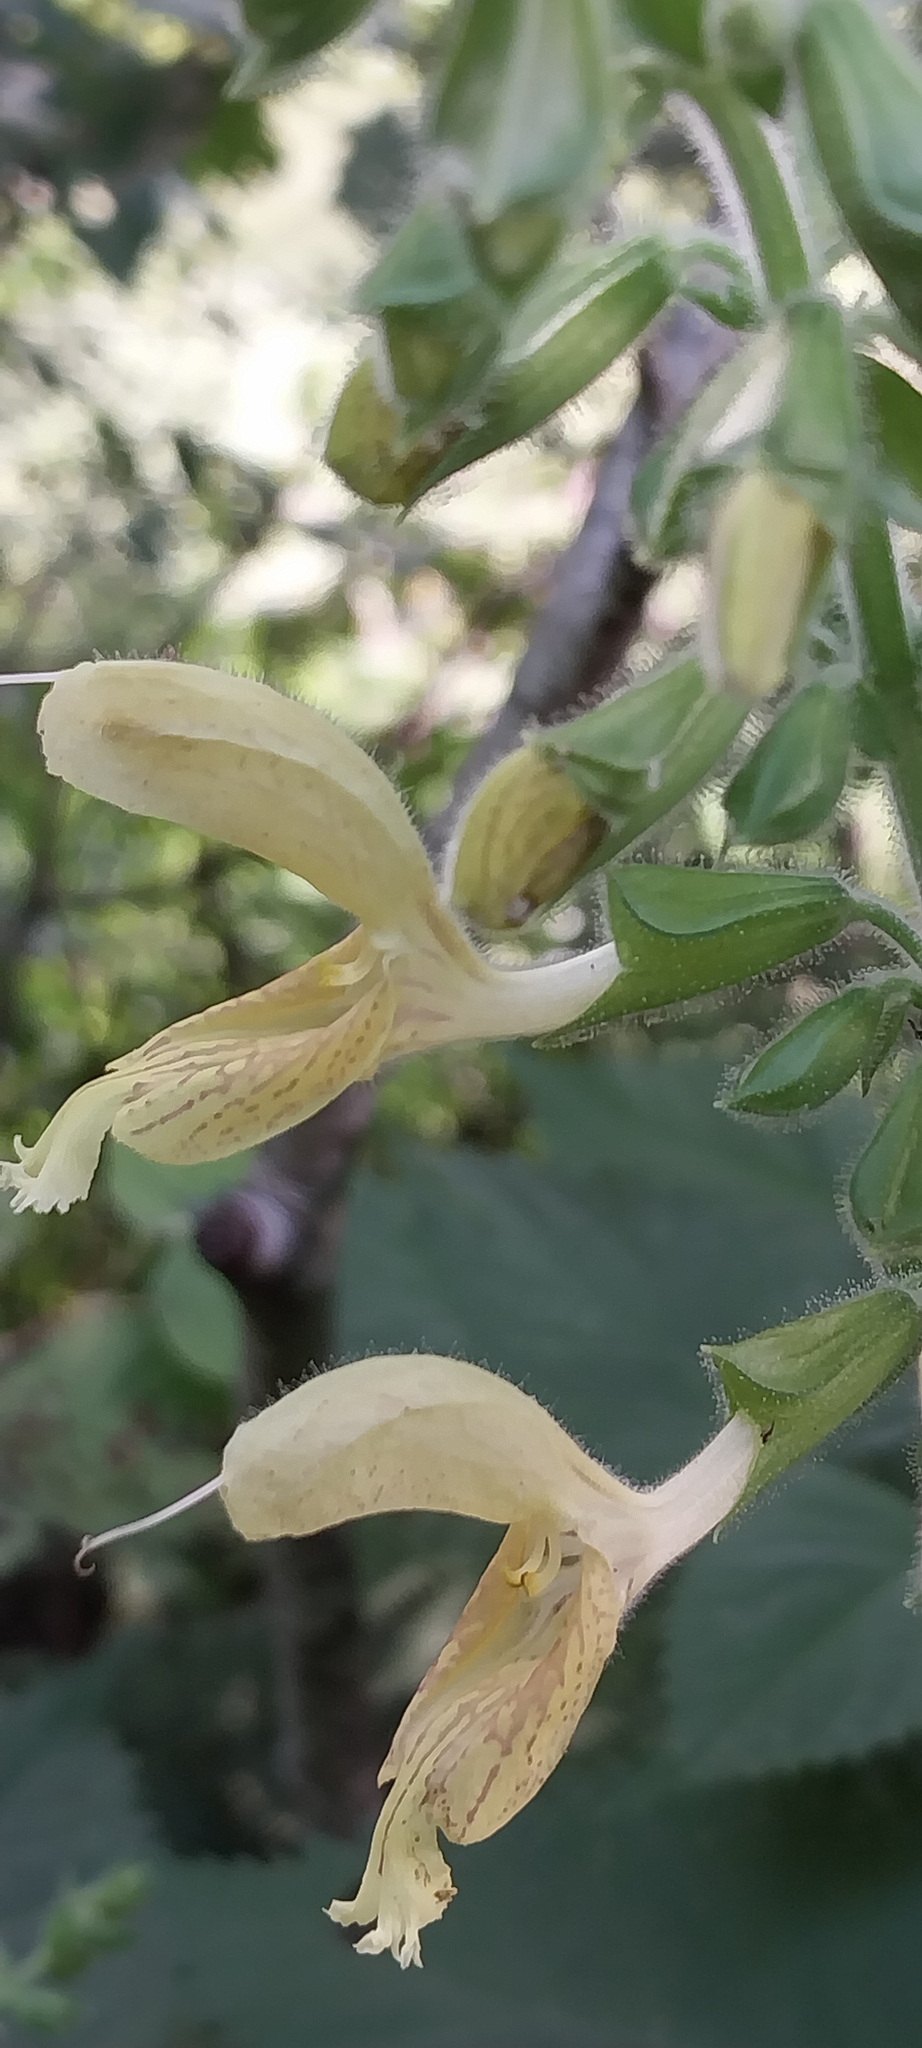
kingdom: Plantae
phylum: Tracheophyta
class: Magnoliopsida
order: Lamiales
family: Lamiaceae
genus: Salvia
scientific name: Salvia glutinosa
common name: Sticky clary
